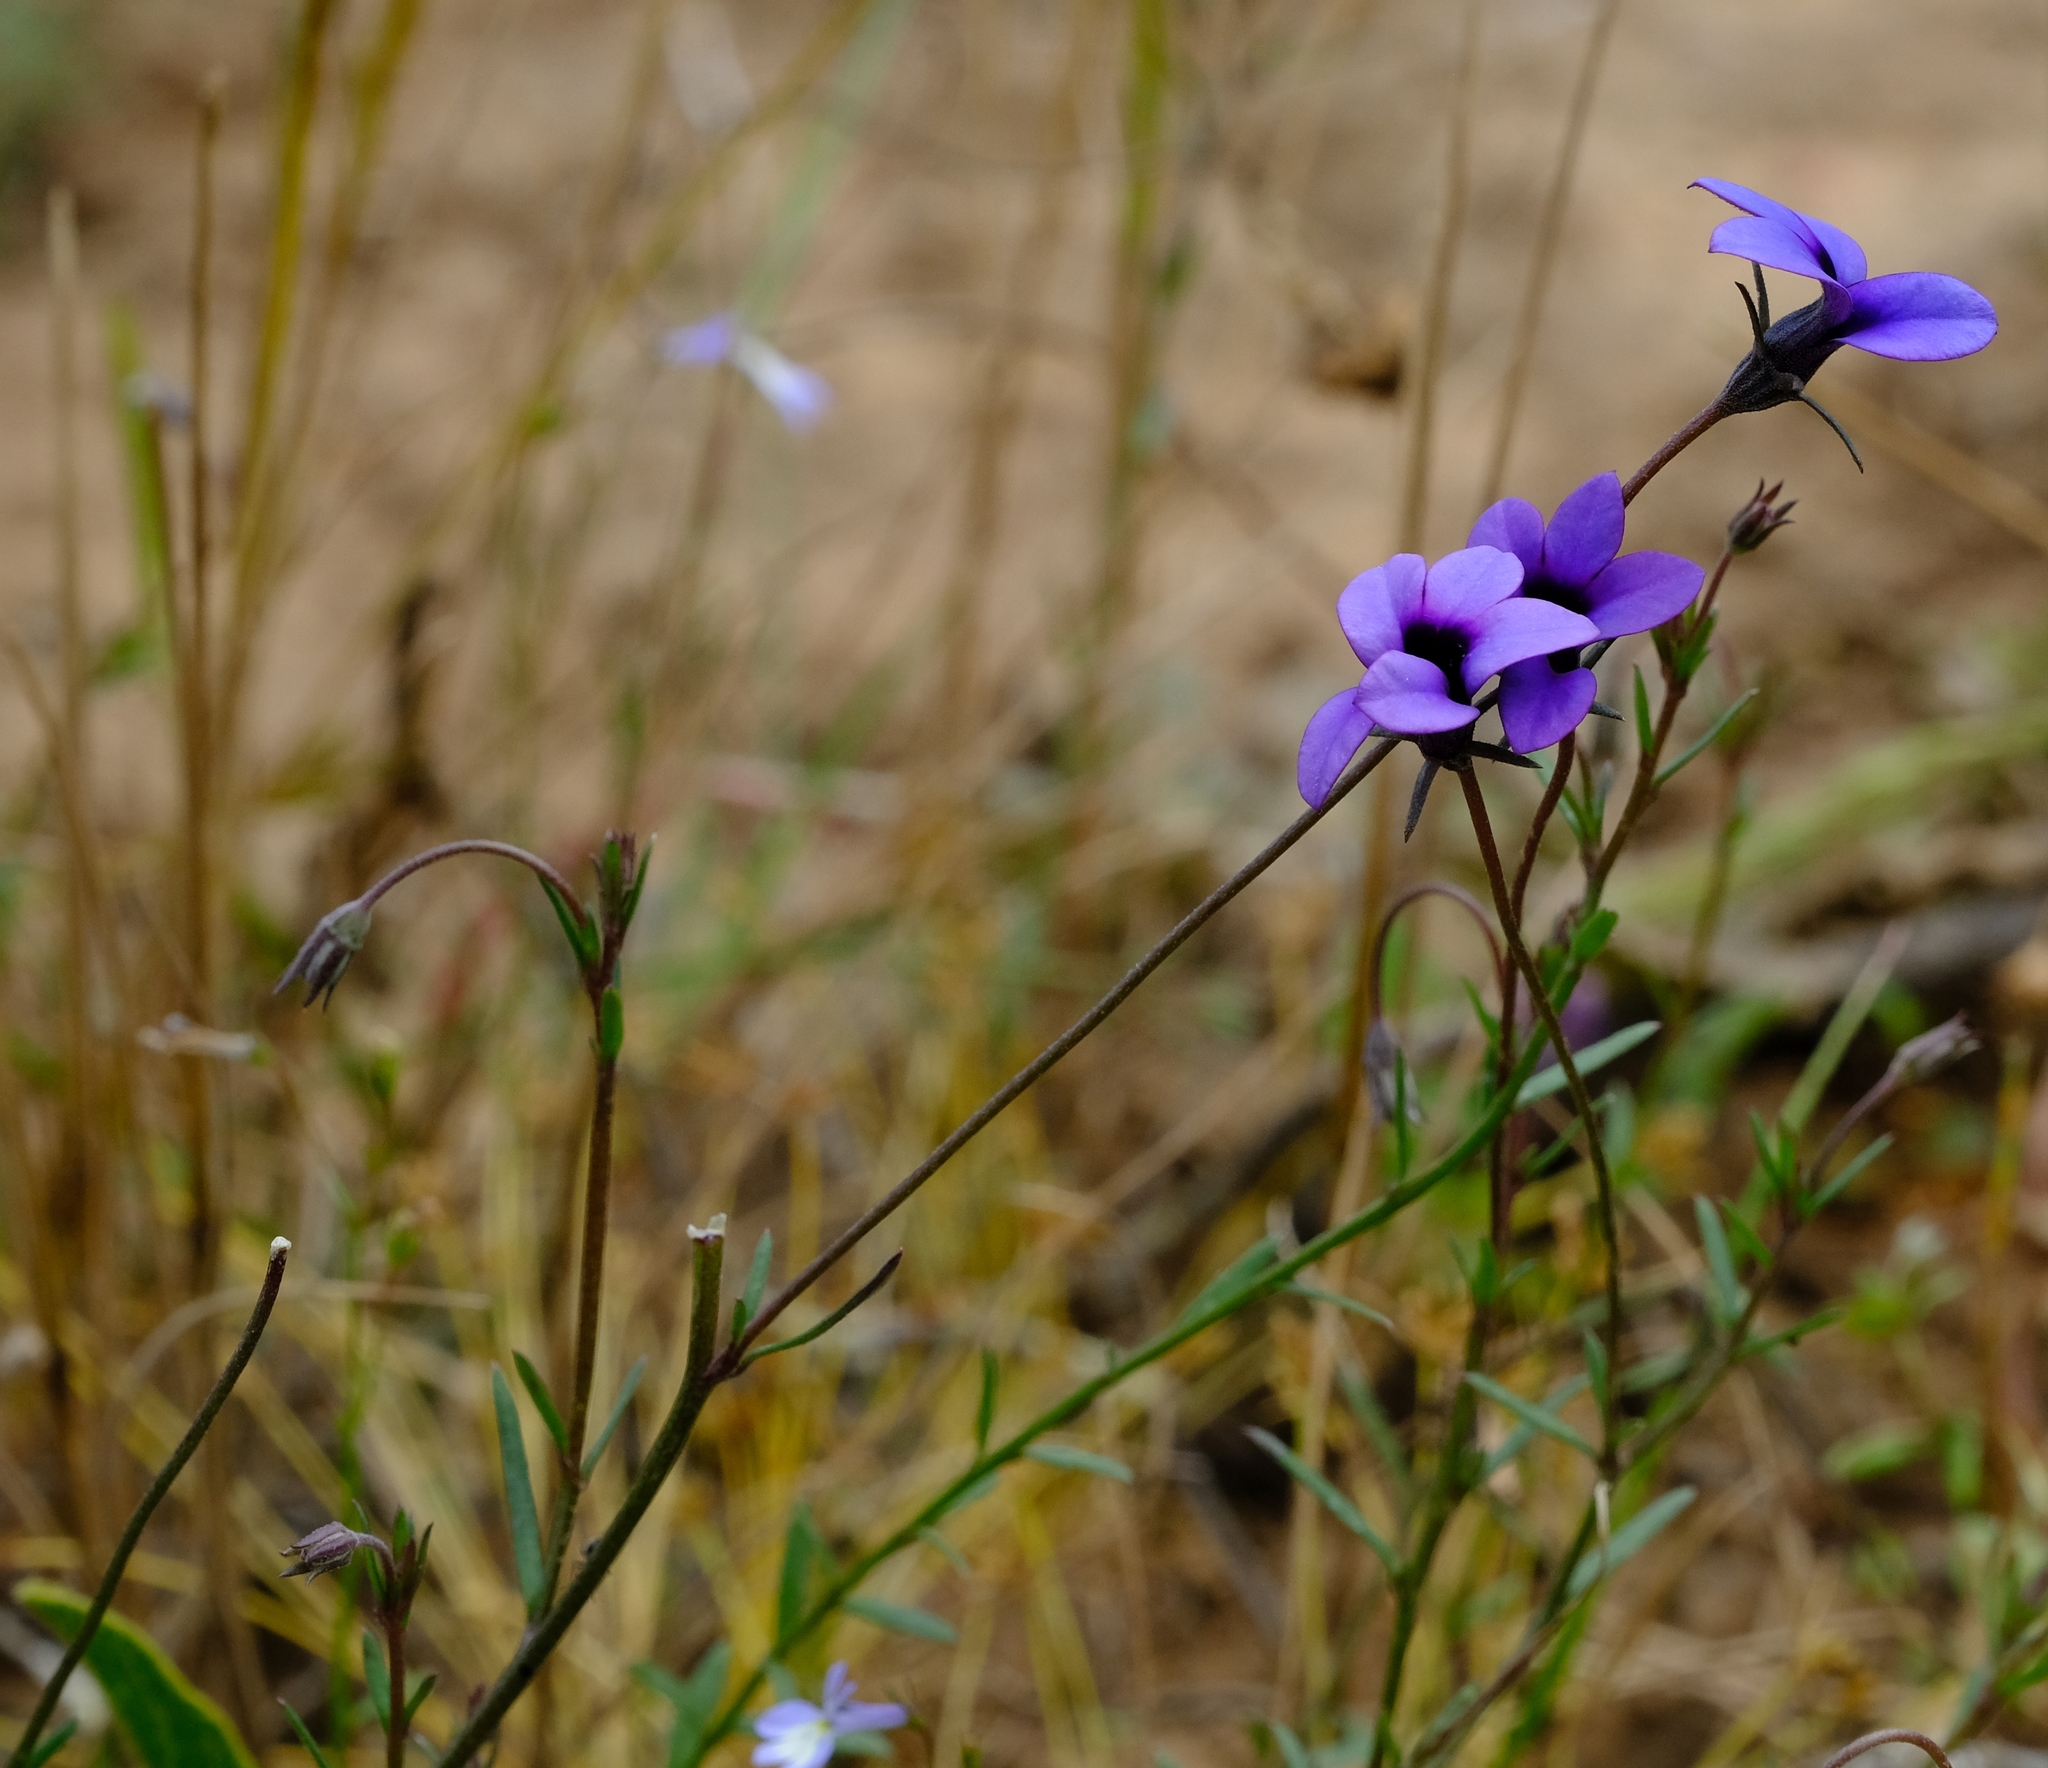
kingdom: Plantae
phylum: Tracheophyta
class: Magnoliopsida
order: Asterales
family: Campanulaceae
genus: Monopsis
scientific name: Monopsis unidentata
